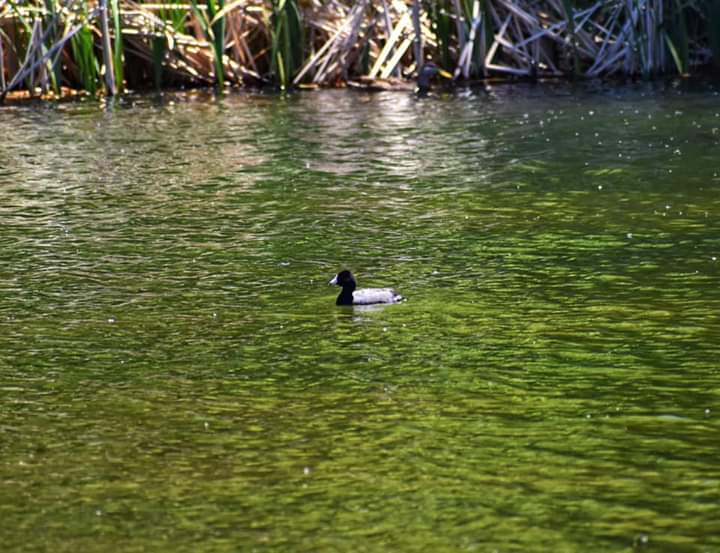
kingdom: Animalia
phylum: Chordata
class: Aves
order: Gruiformes
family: Rallidae
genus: Fulica
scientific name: Fulica americana
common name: American coot
